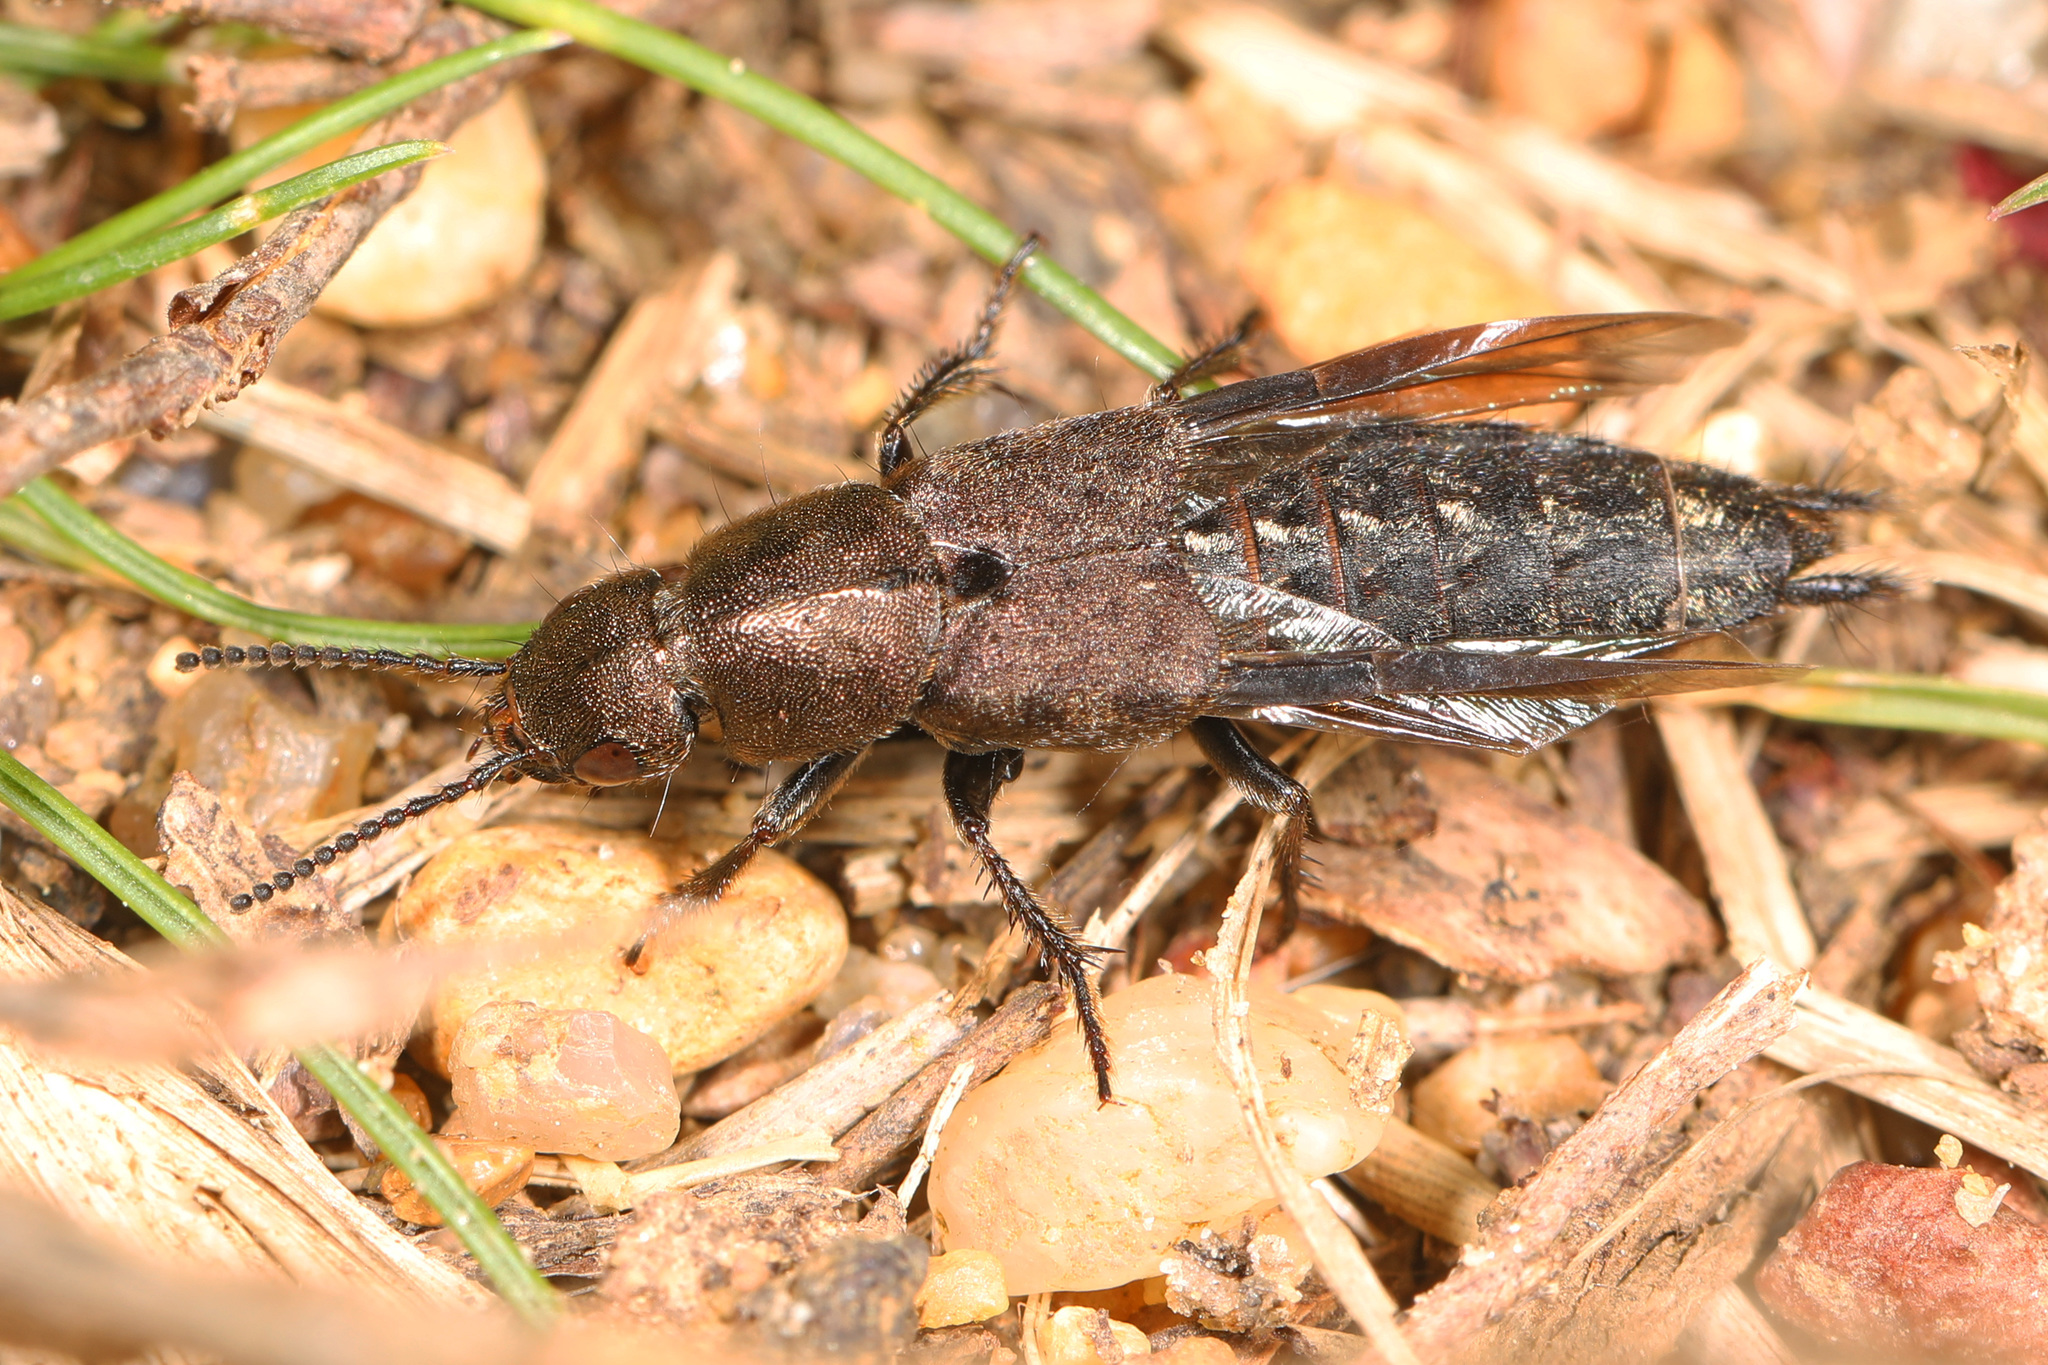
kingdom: Animalia
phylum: Arthropoda
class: Insecta
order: Coleoptera
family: Staphylinidae
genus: Platydracus
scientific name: Platydracus maculosus
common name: Brown rove beetle
